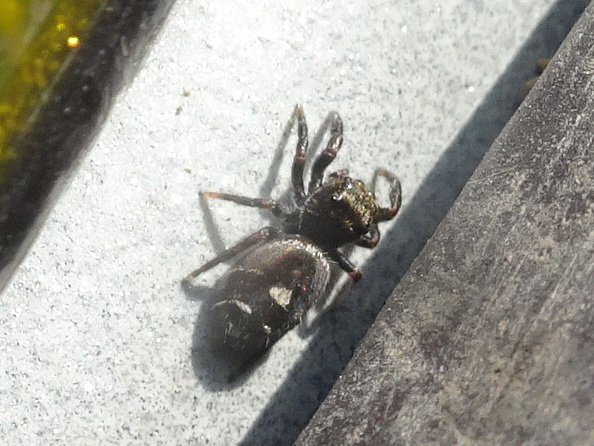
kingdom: Animalia
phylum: Arthropoda
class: Arachnida
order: Araneae
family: Salticidae
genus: Phidippus
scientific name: Phidippus audax
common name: Bold jumper
